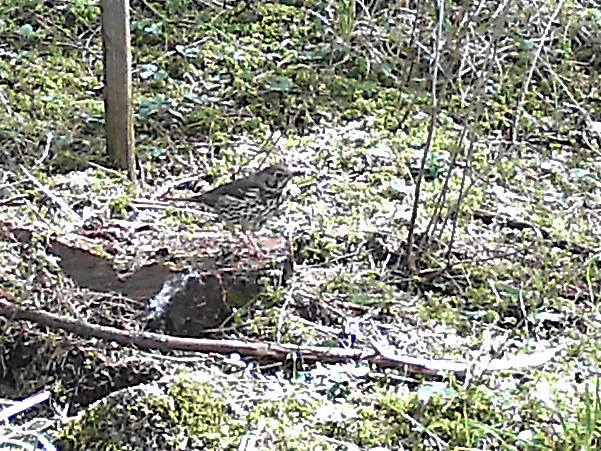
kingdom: Animalia
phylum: Chordata
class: Aves
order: Passeriformes
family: Turdidae
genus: Turdus
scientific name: Turdus philomelos
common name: Song thrush
